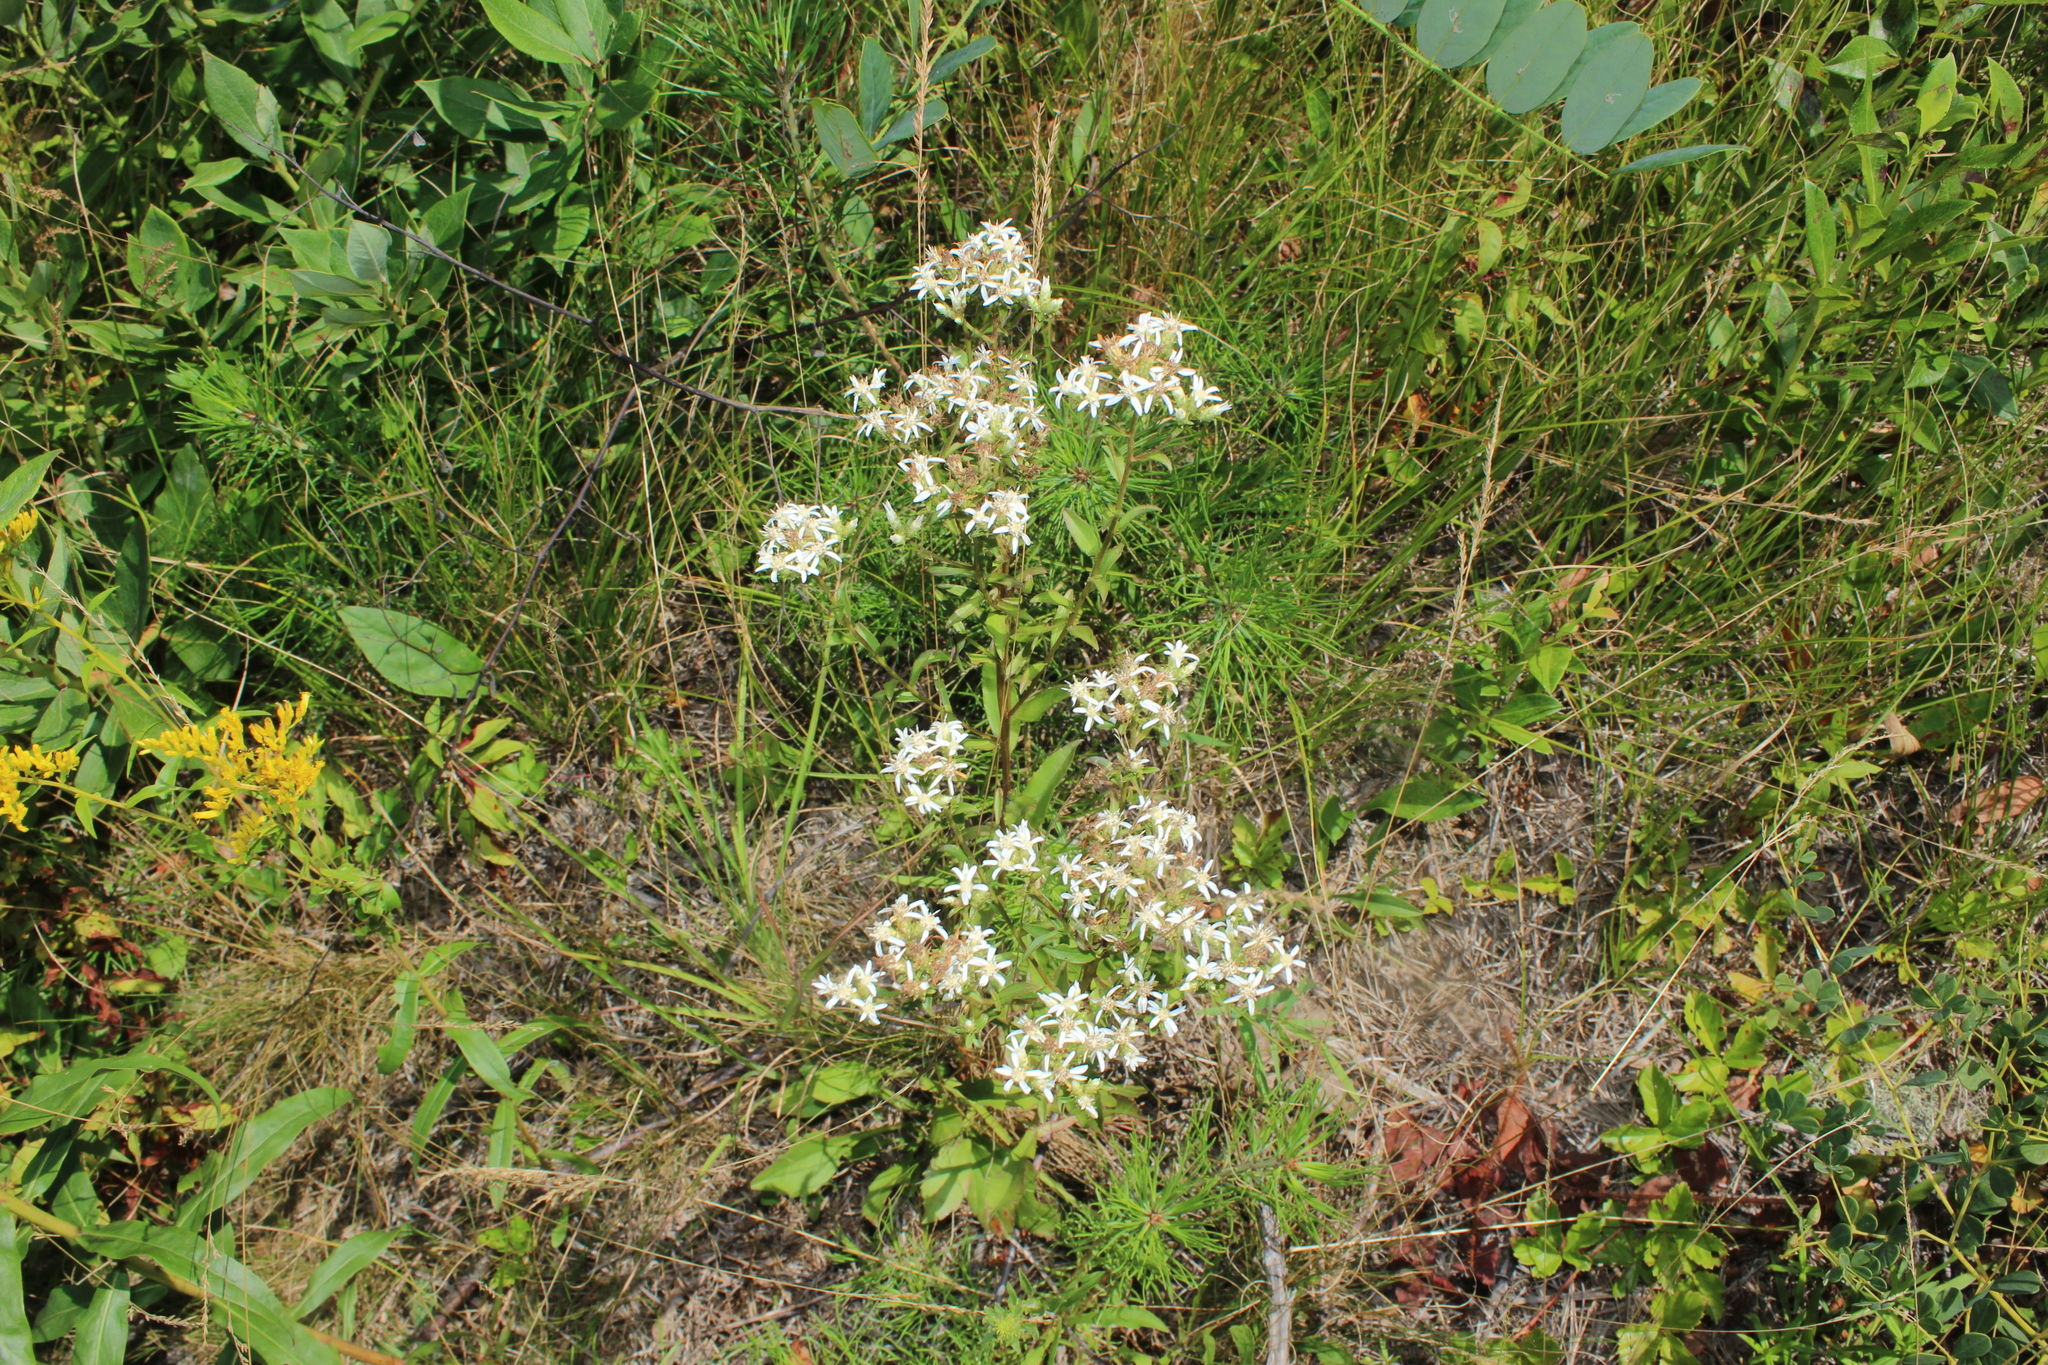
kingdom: Plantae
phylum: Tracheophyta
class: Magnoliopsida
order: Asterales
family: Asteraceae
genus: Solidago
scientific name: Solidago odora
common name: Anise-scented goldenrod
